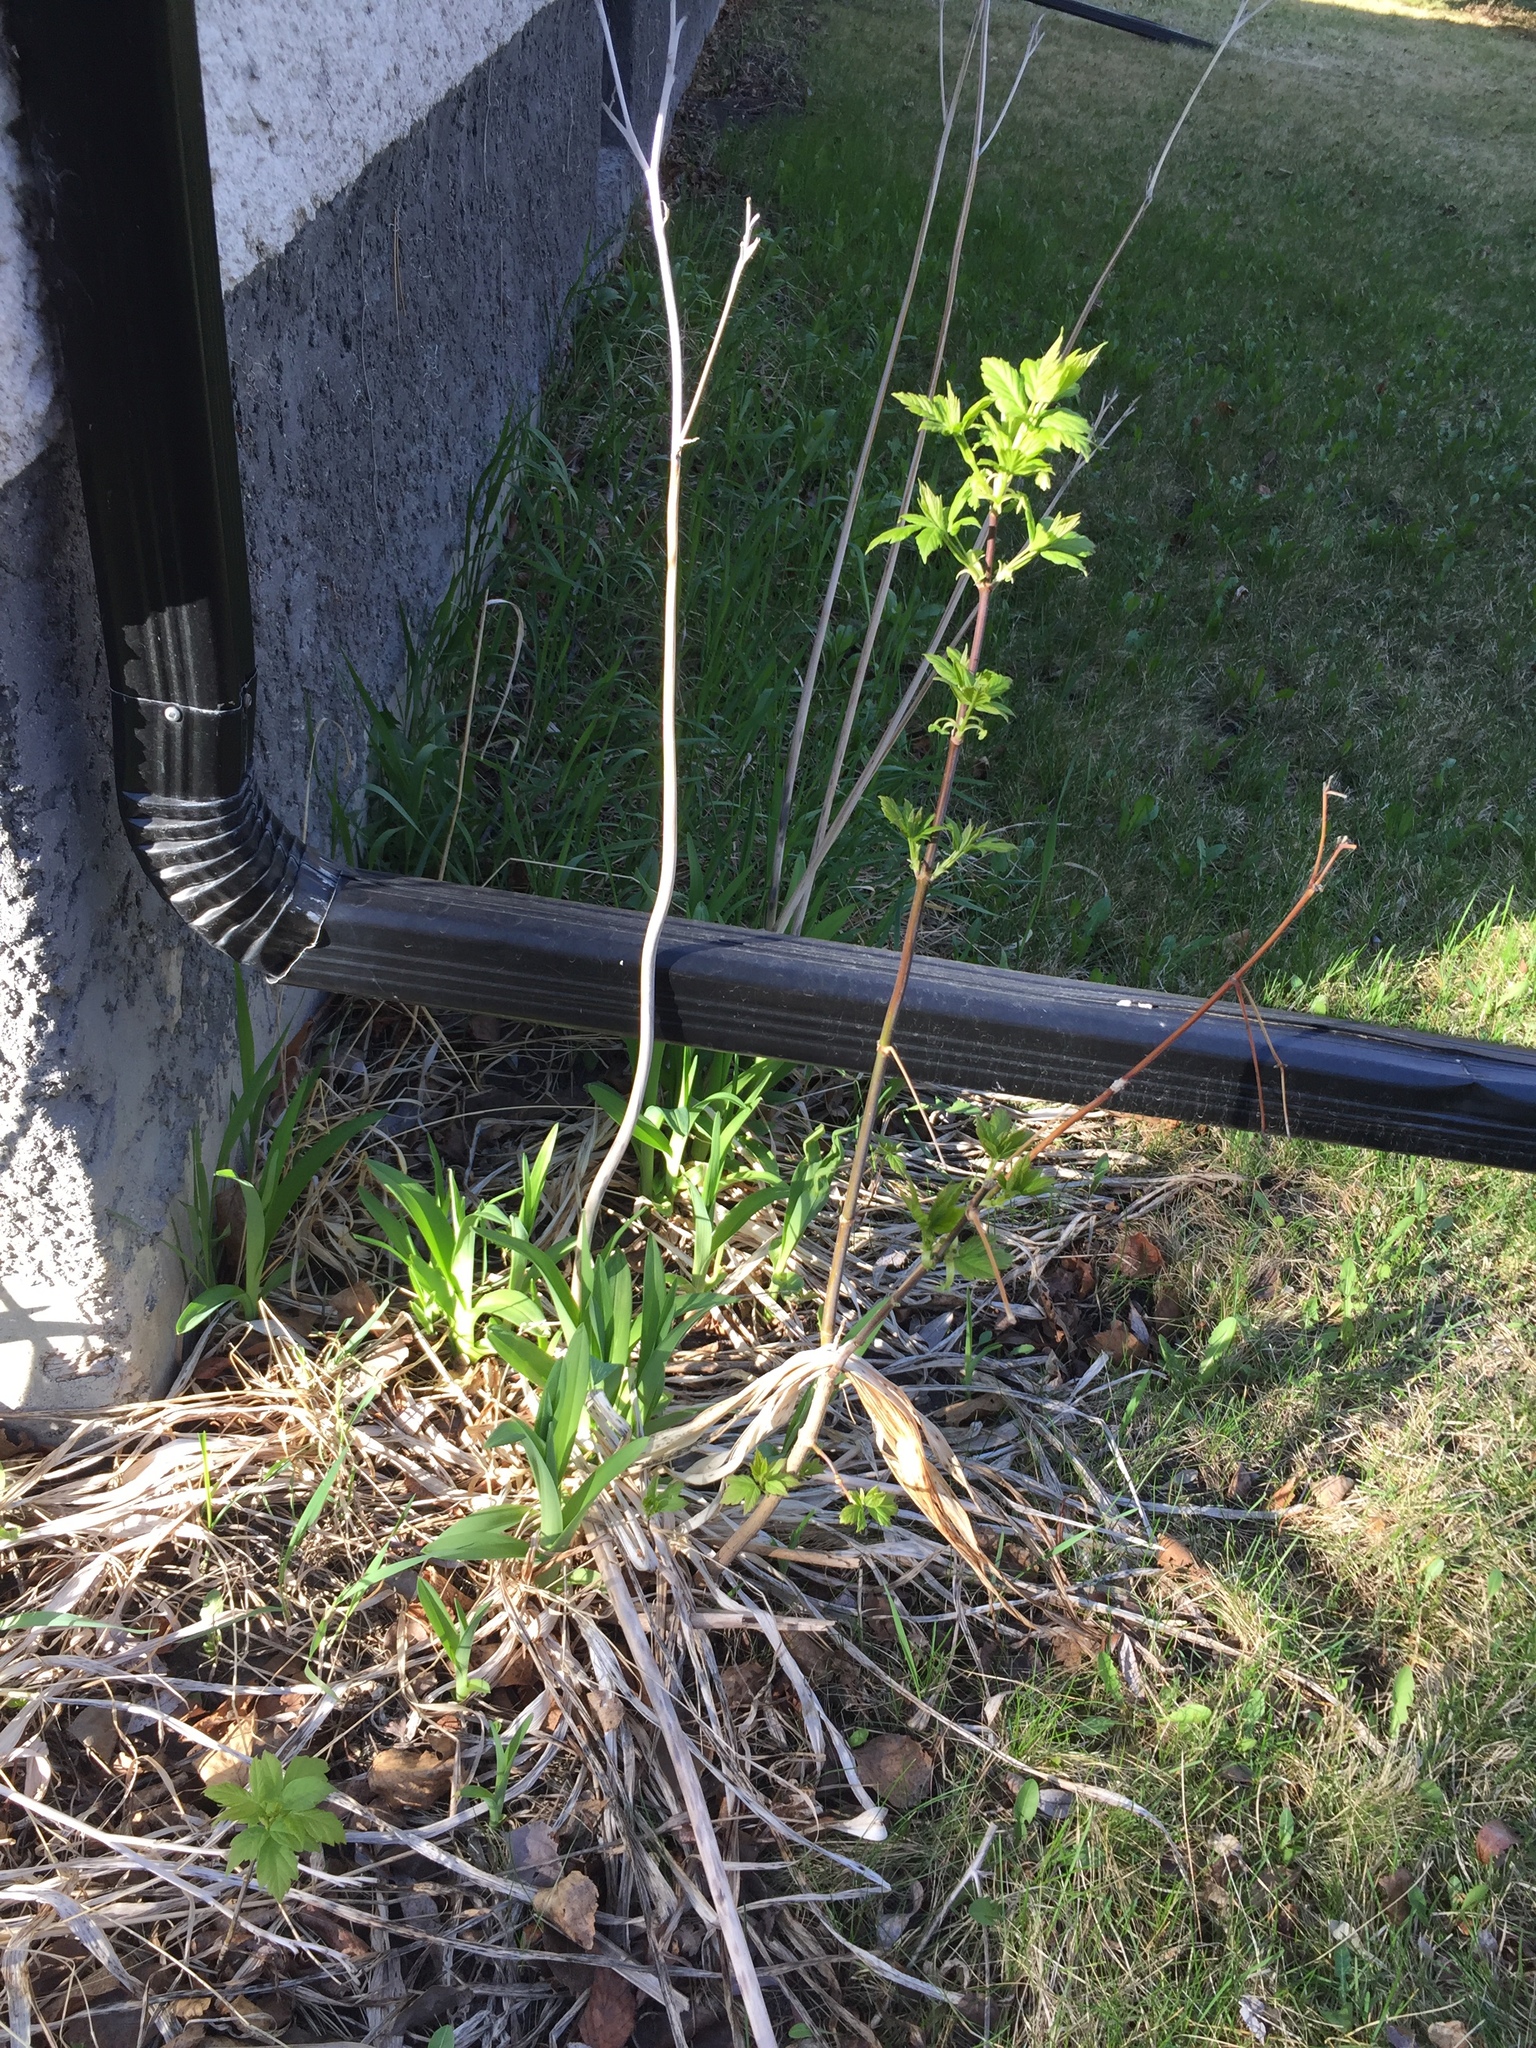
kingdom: Plantae
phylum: Tracheophyta
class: Magnoliopsida
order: Sapindales
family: Sapindaceae
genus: Acer
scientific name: Acer negundo
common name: Ashleaf maple
